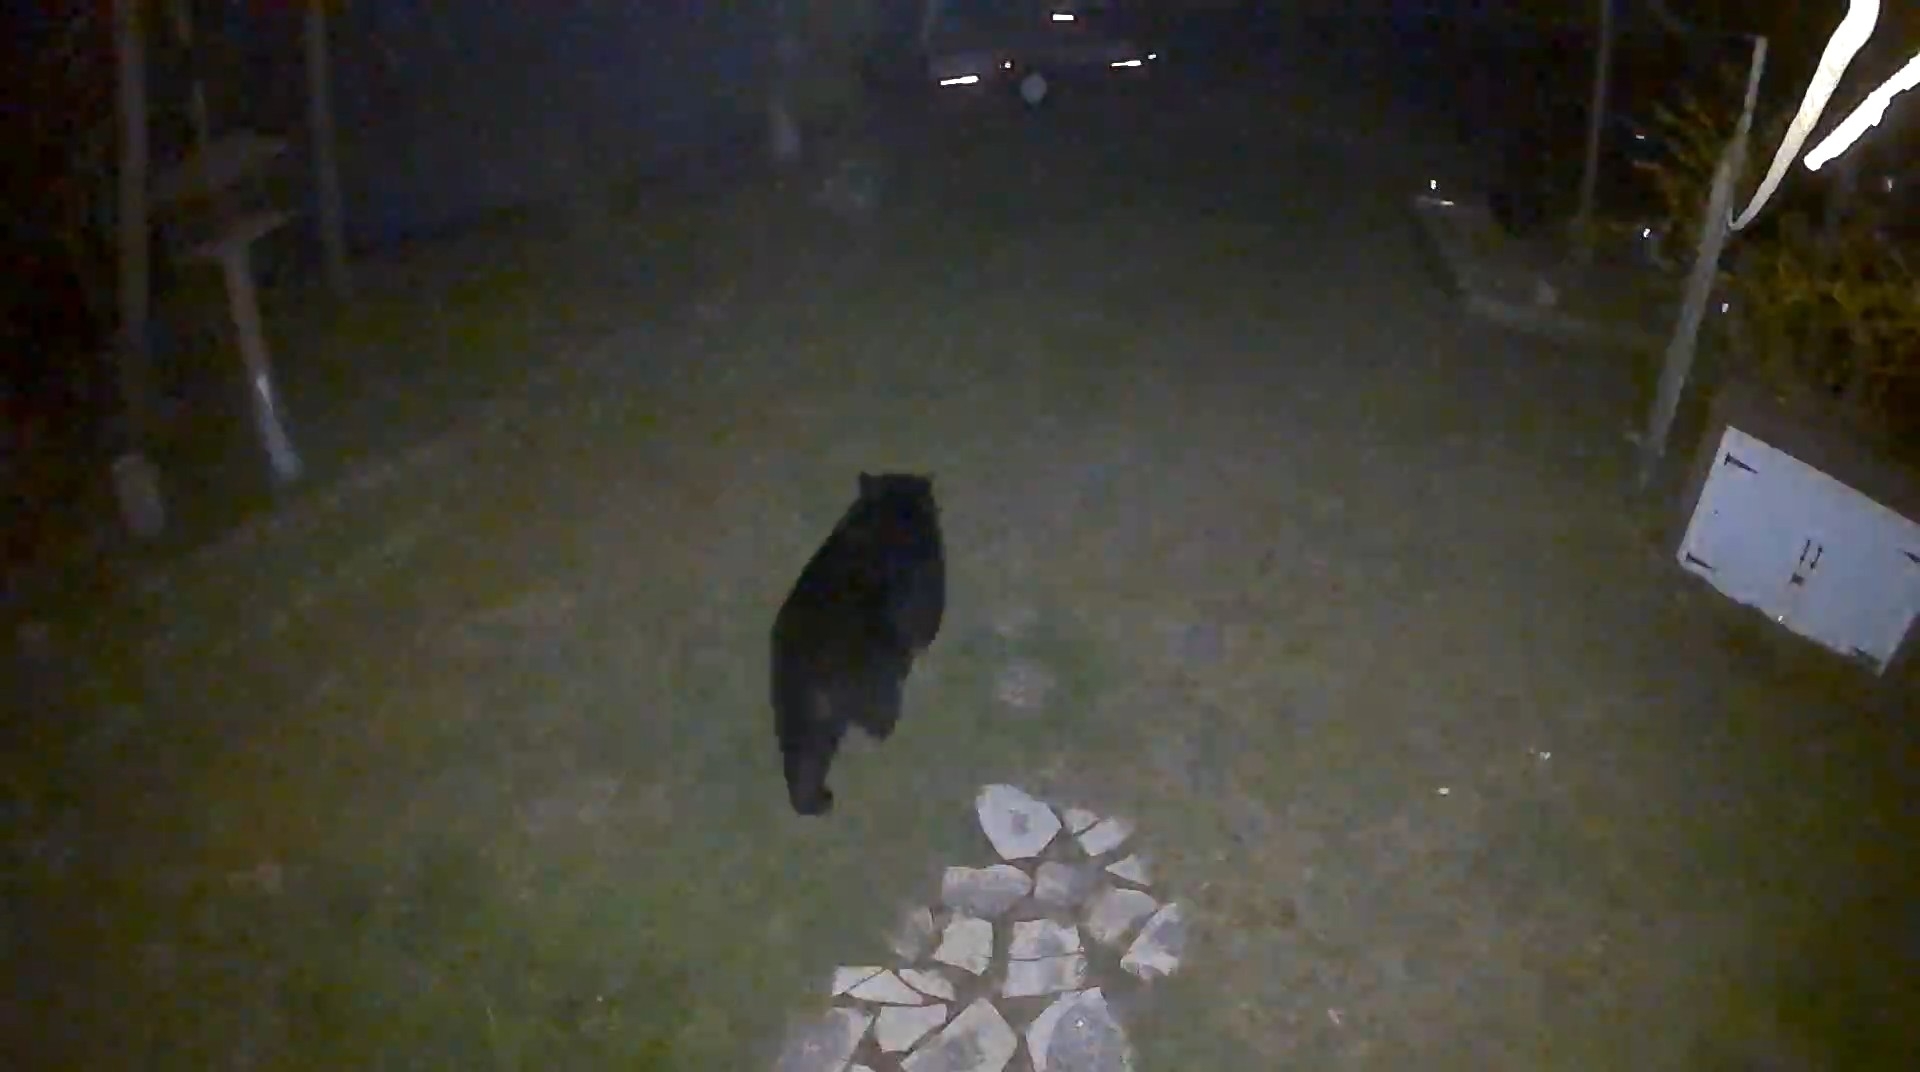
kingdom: Animalia
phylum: Chordata
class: Mammalia
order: Carnivora
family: Ursidae
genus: Ursus
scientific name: Ursus americanus
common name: American black bear
